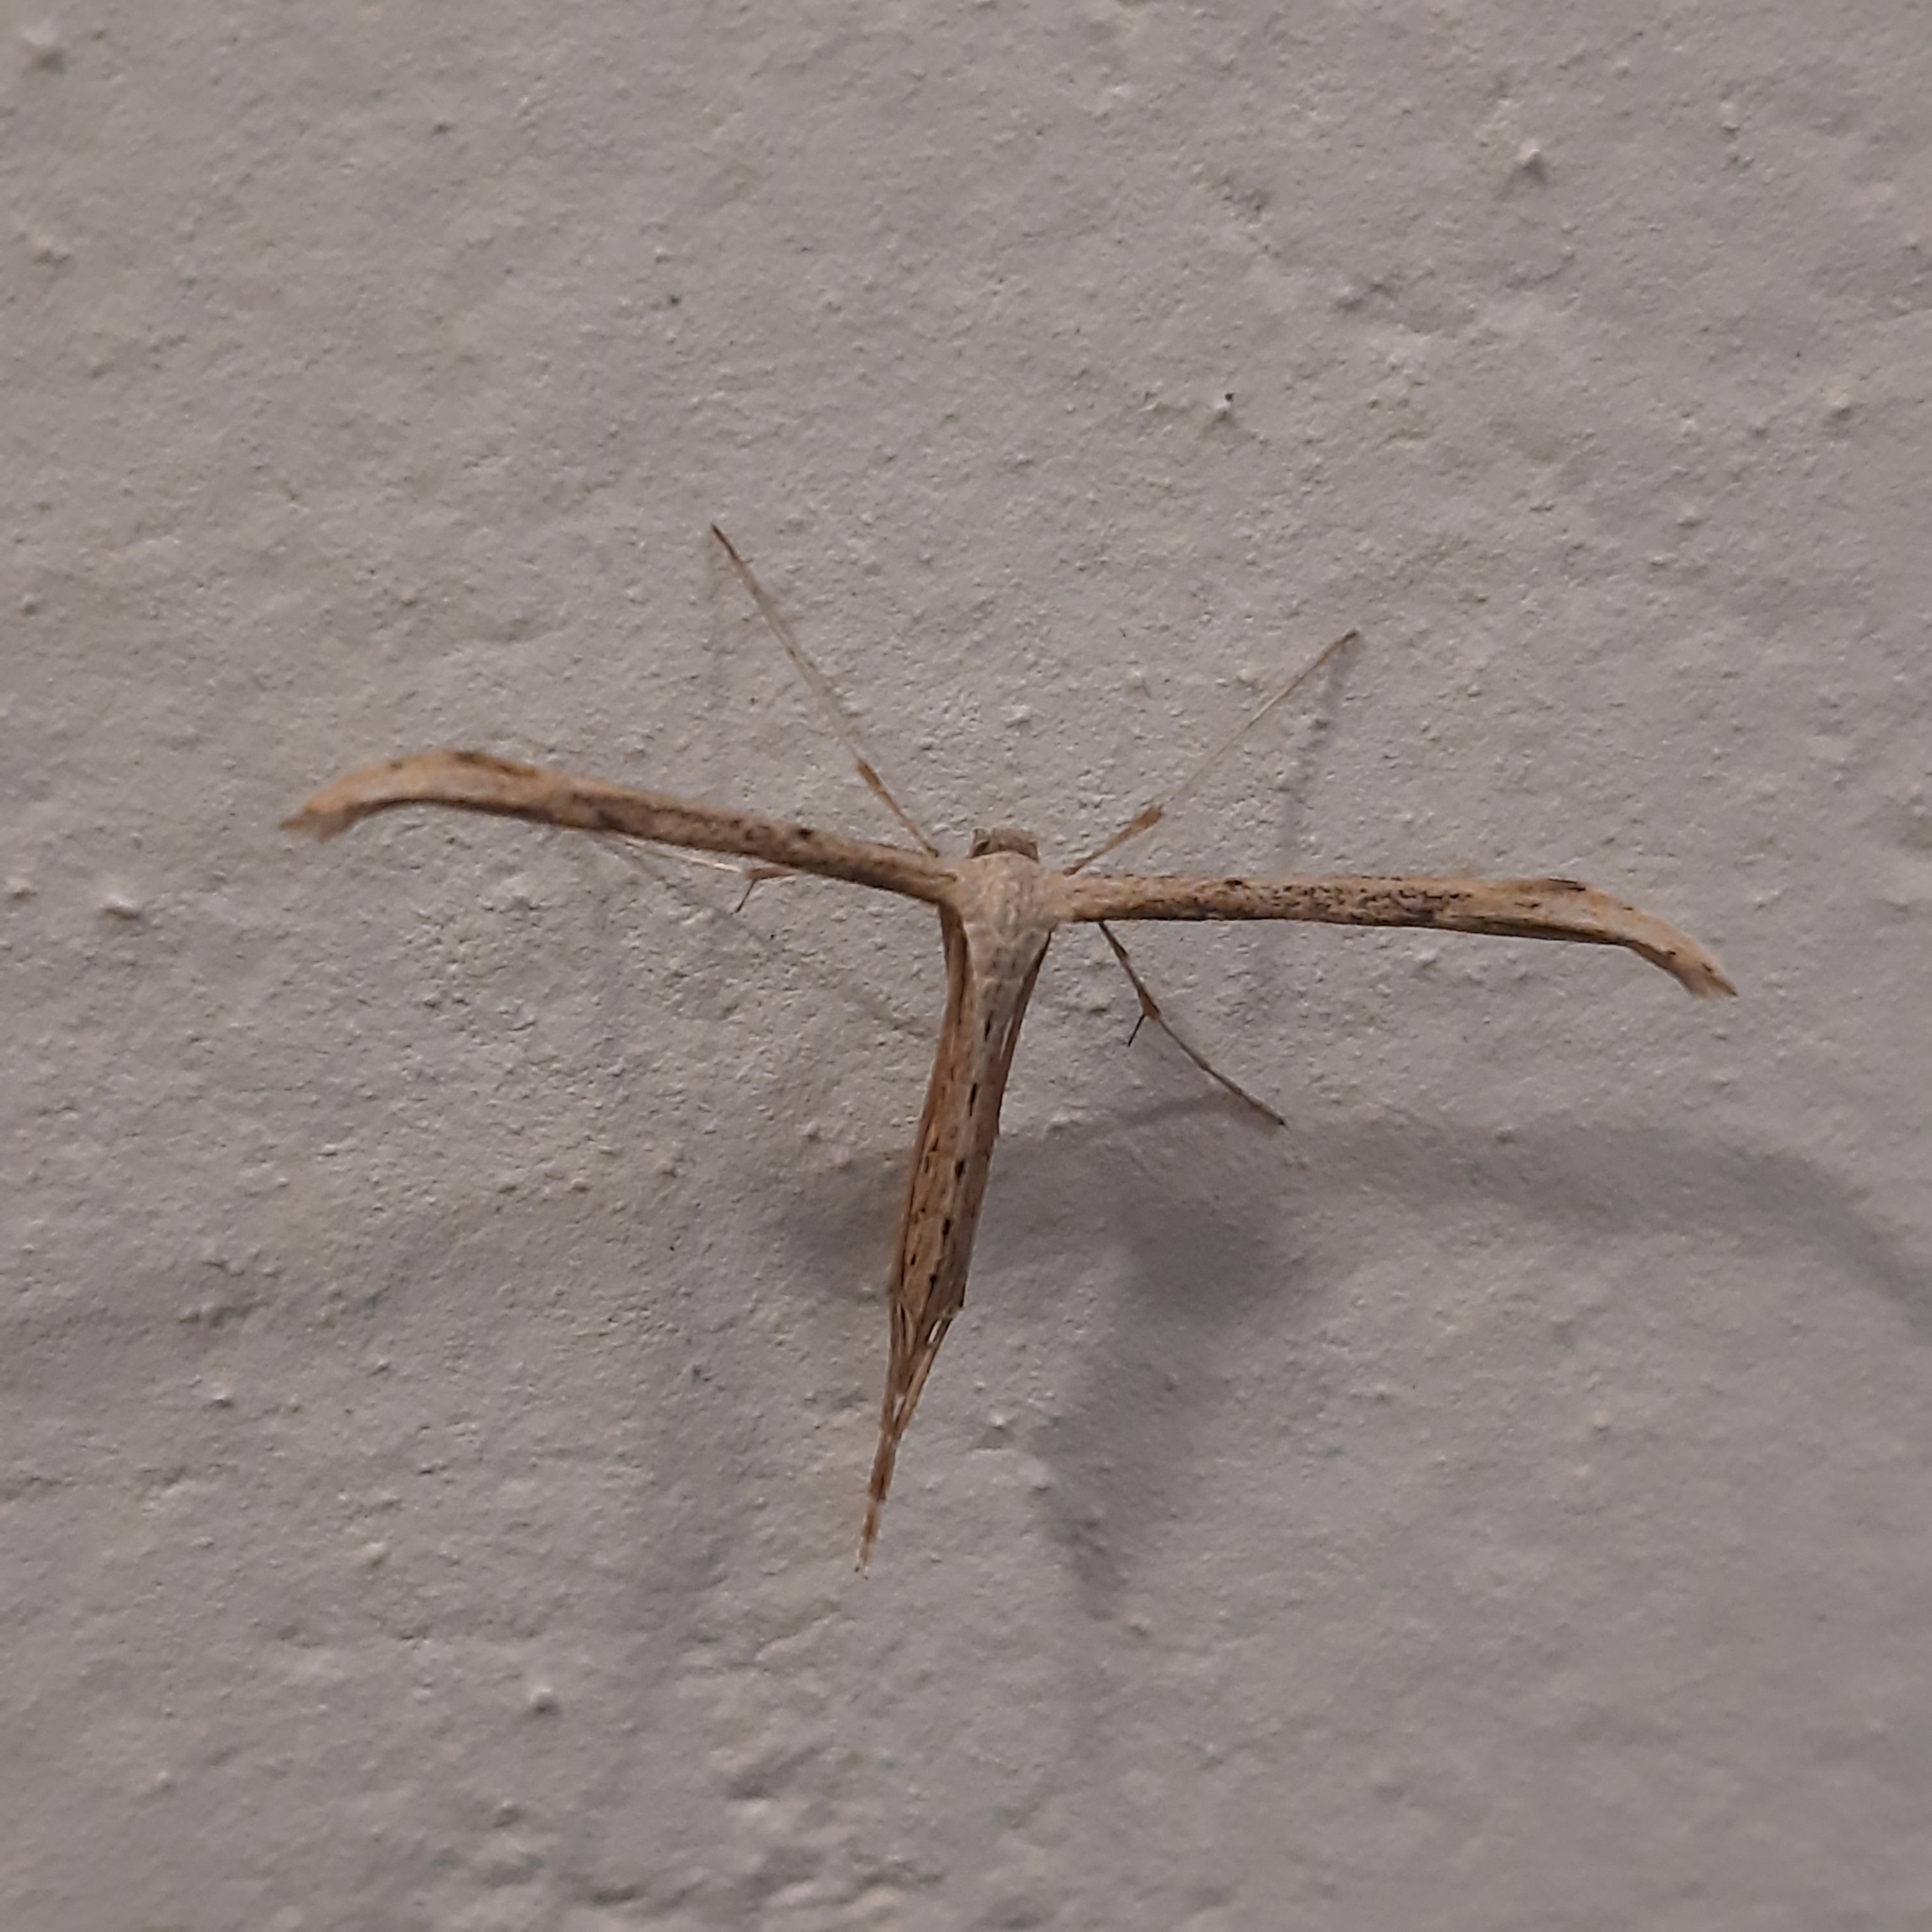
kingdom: Animalia
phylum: Arthropoda
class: Insecta
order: Lepidoptera
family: Pterophoridae
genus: Emmelina
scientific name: Emmelina
